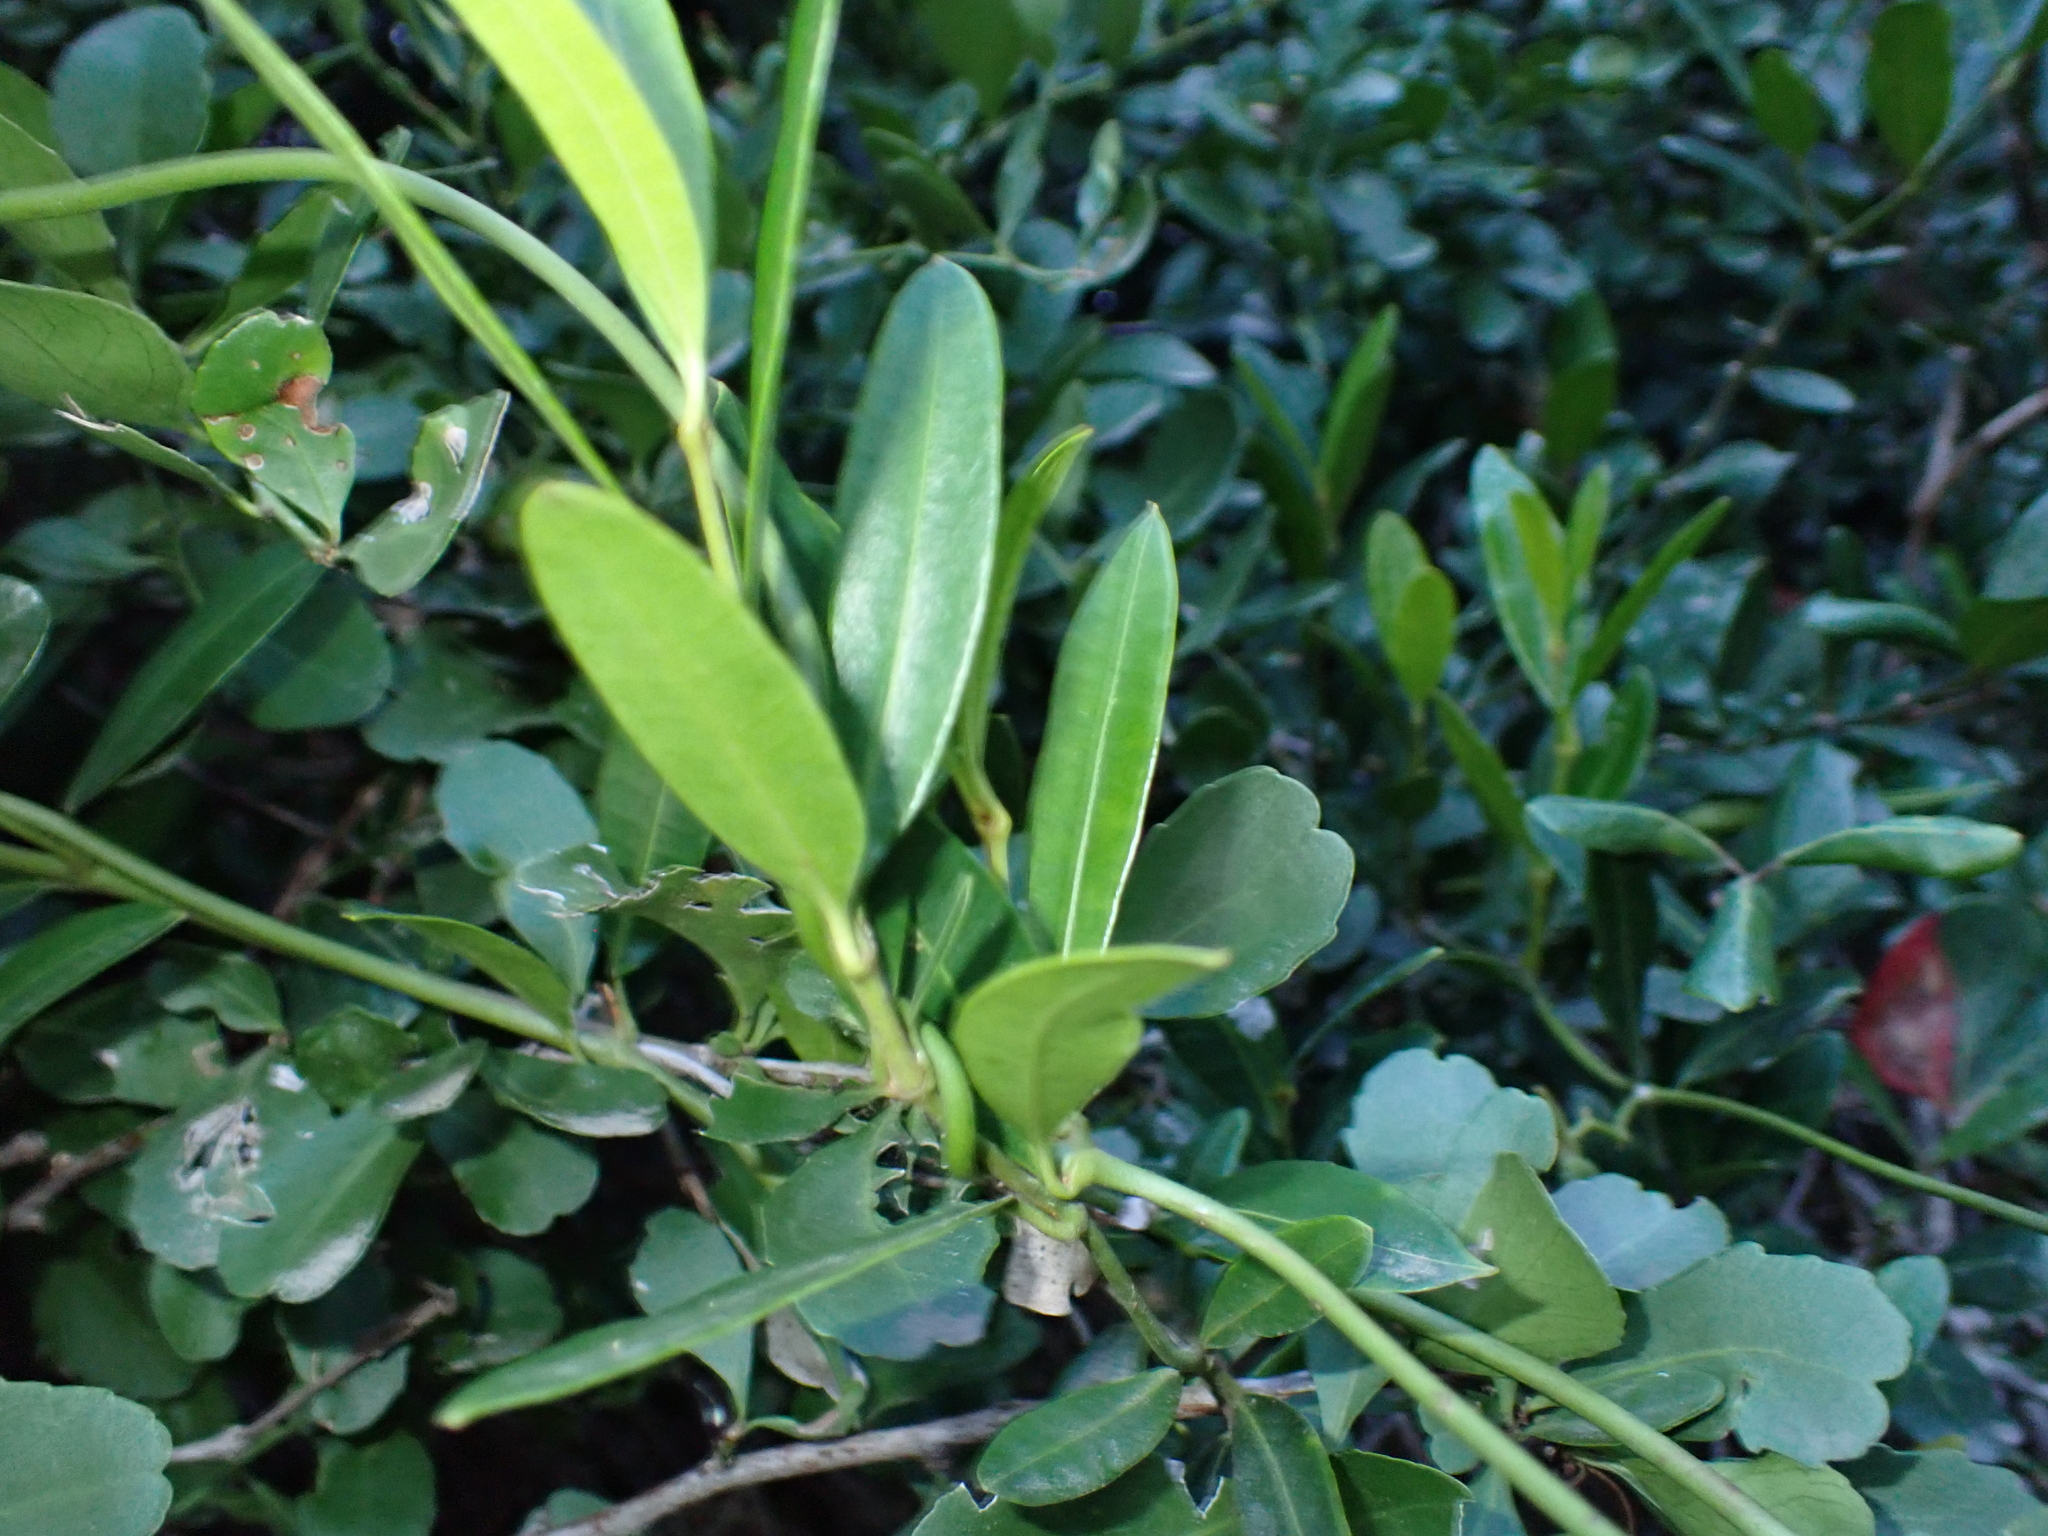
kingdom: Plantae
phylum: Tracheophyta
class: Magnoliopsida
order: Gentianales
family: Apocynaceae
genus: Secamone
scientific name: Secamone alpini
